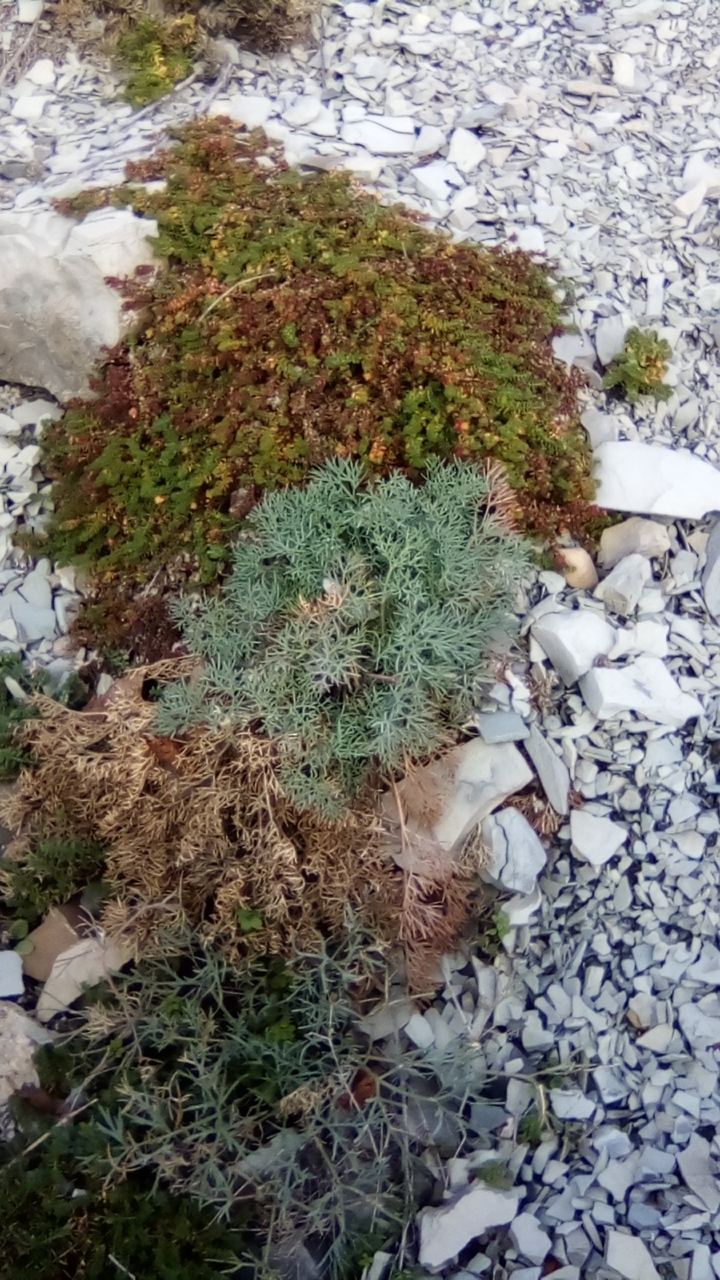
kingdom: Plantae
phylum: Tracheophyta
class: Magnoliopsida
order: Apiales
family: Apiaceae
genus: Seseli
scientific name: Seseli ponticum
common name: Pontic seseli
